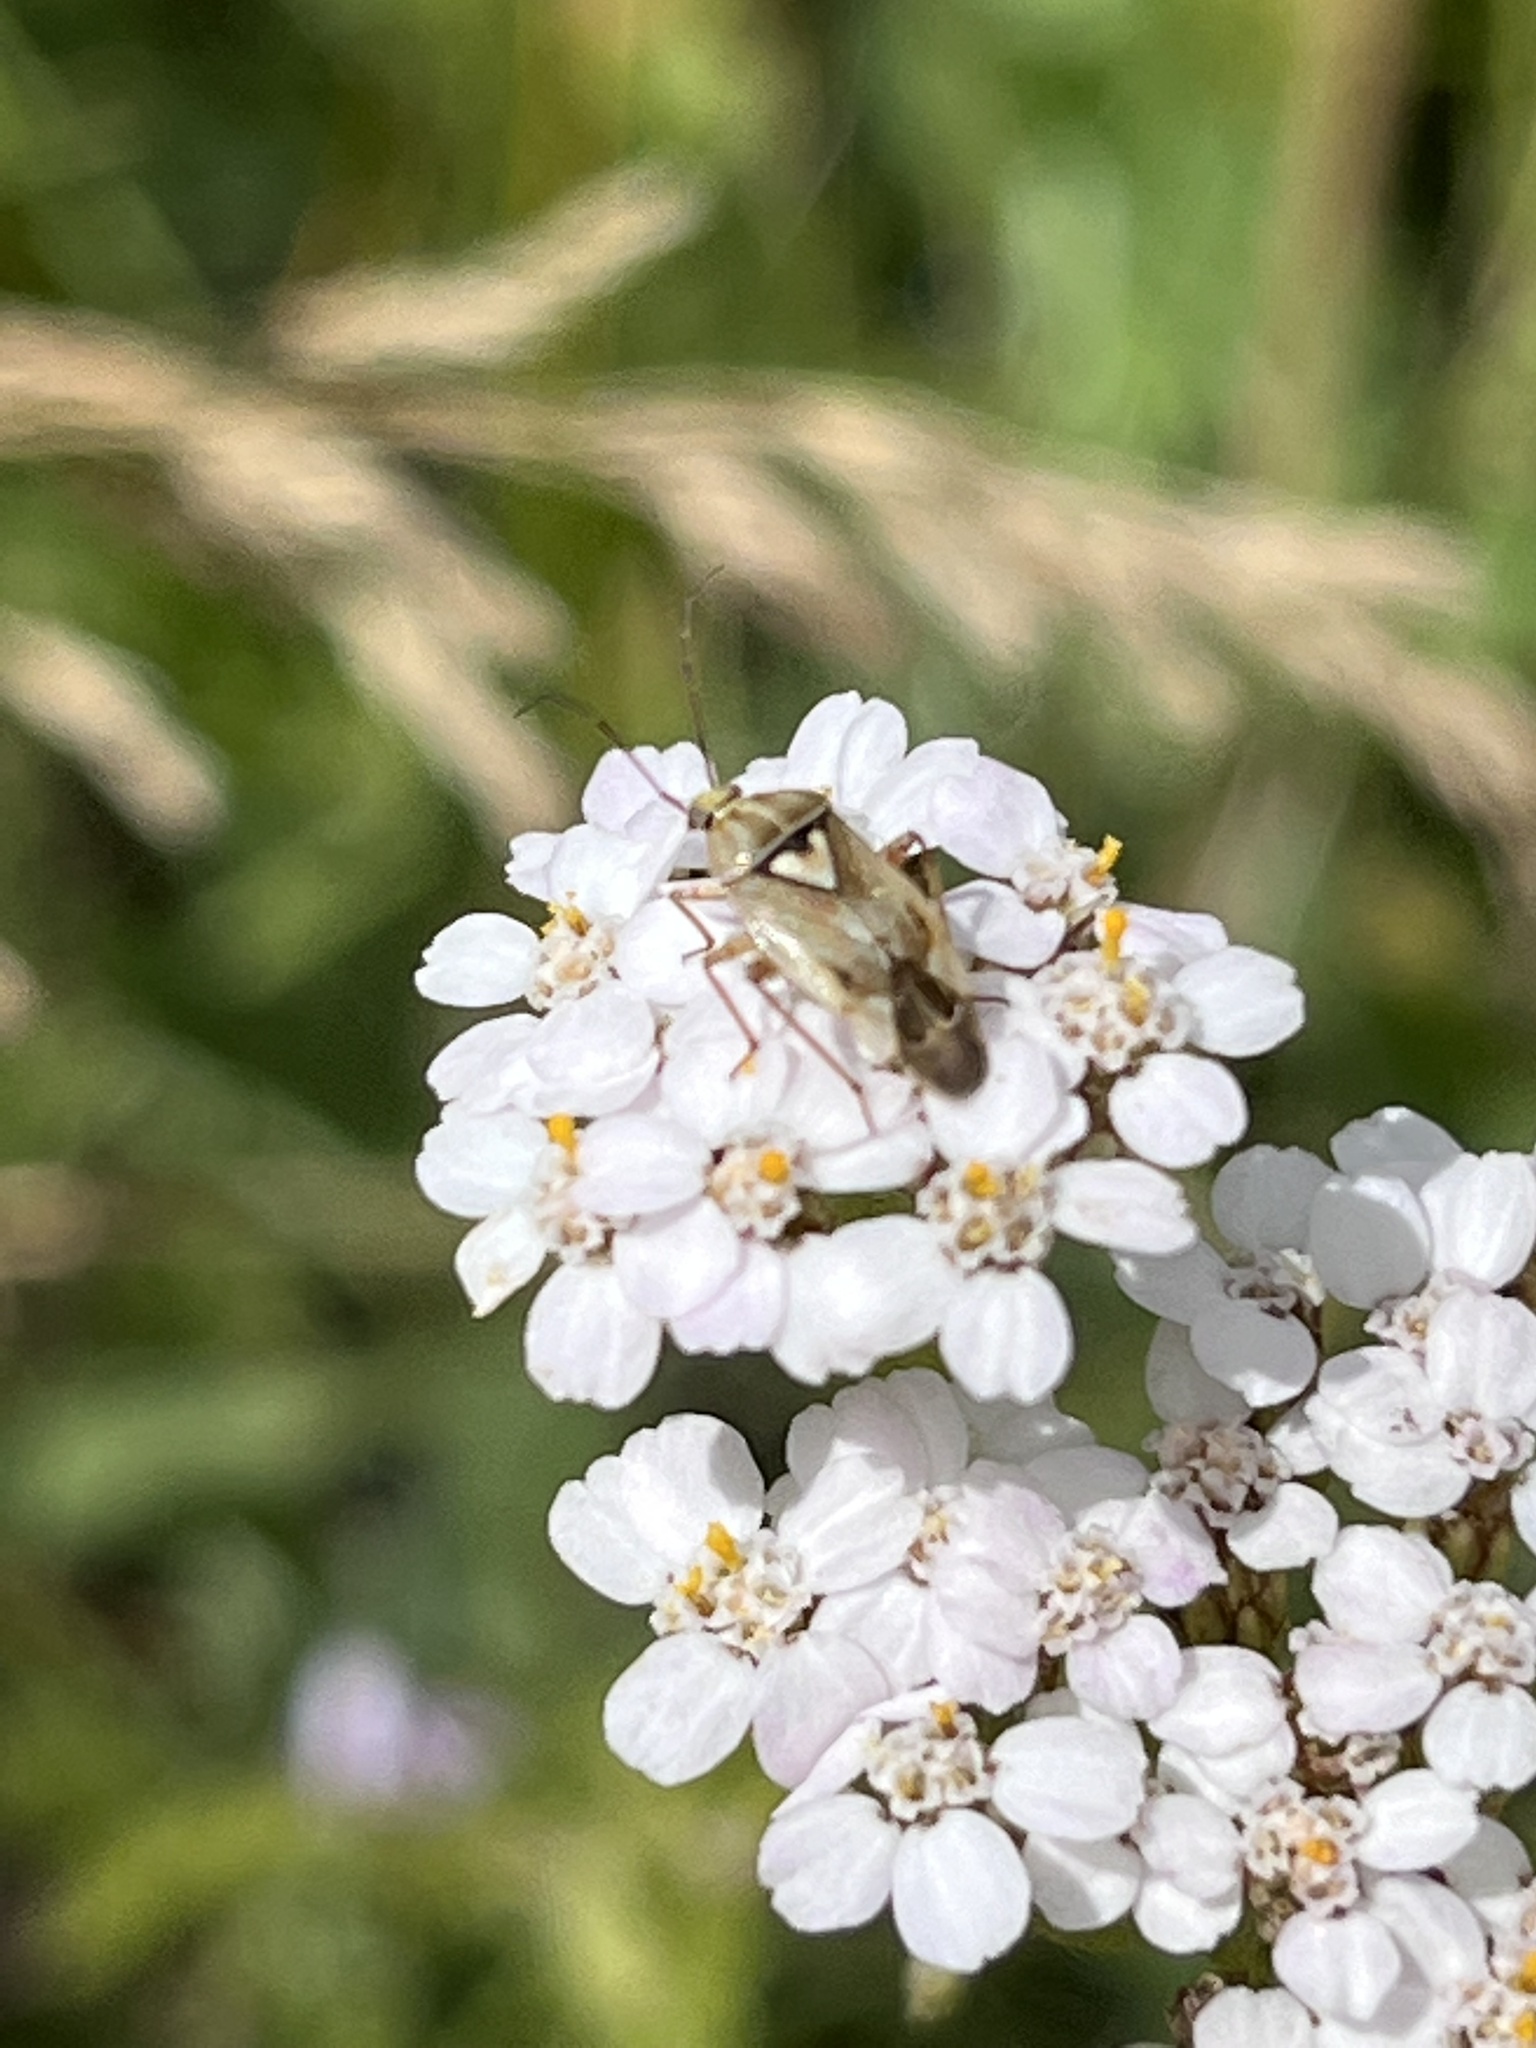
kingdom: Plantae
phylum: Tracheophyta
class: Magnoliopsida
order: Asterales
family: Asteraceae
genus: Achillea
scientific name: Achillea millefolium
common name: Yarrow
